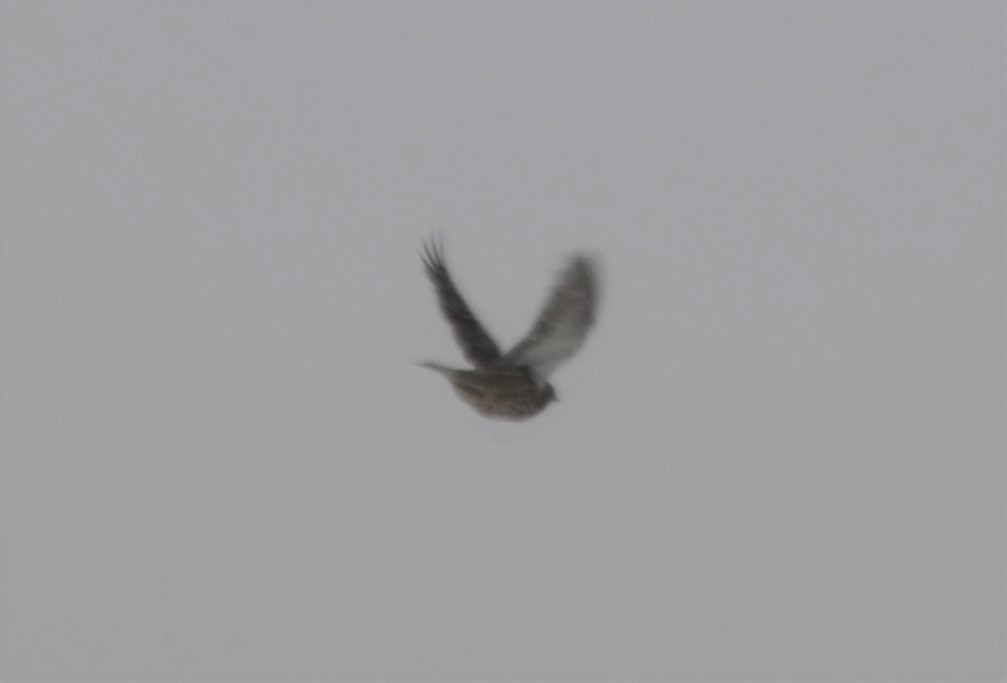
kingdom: Animalia
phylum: Chordata
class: Aves
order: Passeriformes
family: Turdidae
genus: Turdus
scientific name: Turdus viscivorus
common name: Mistle thrush
